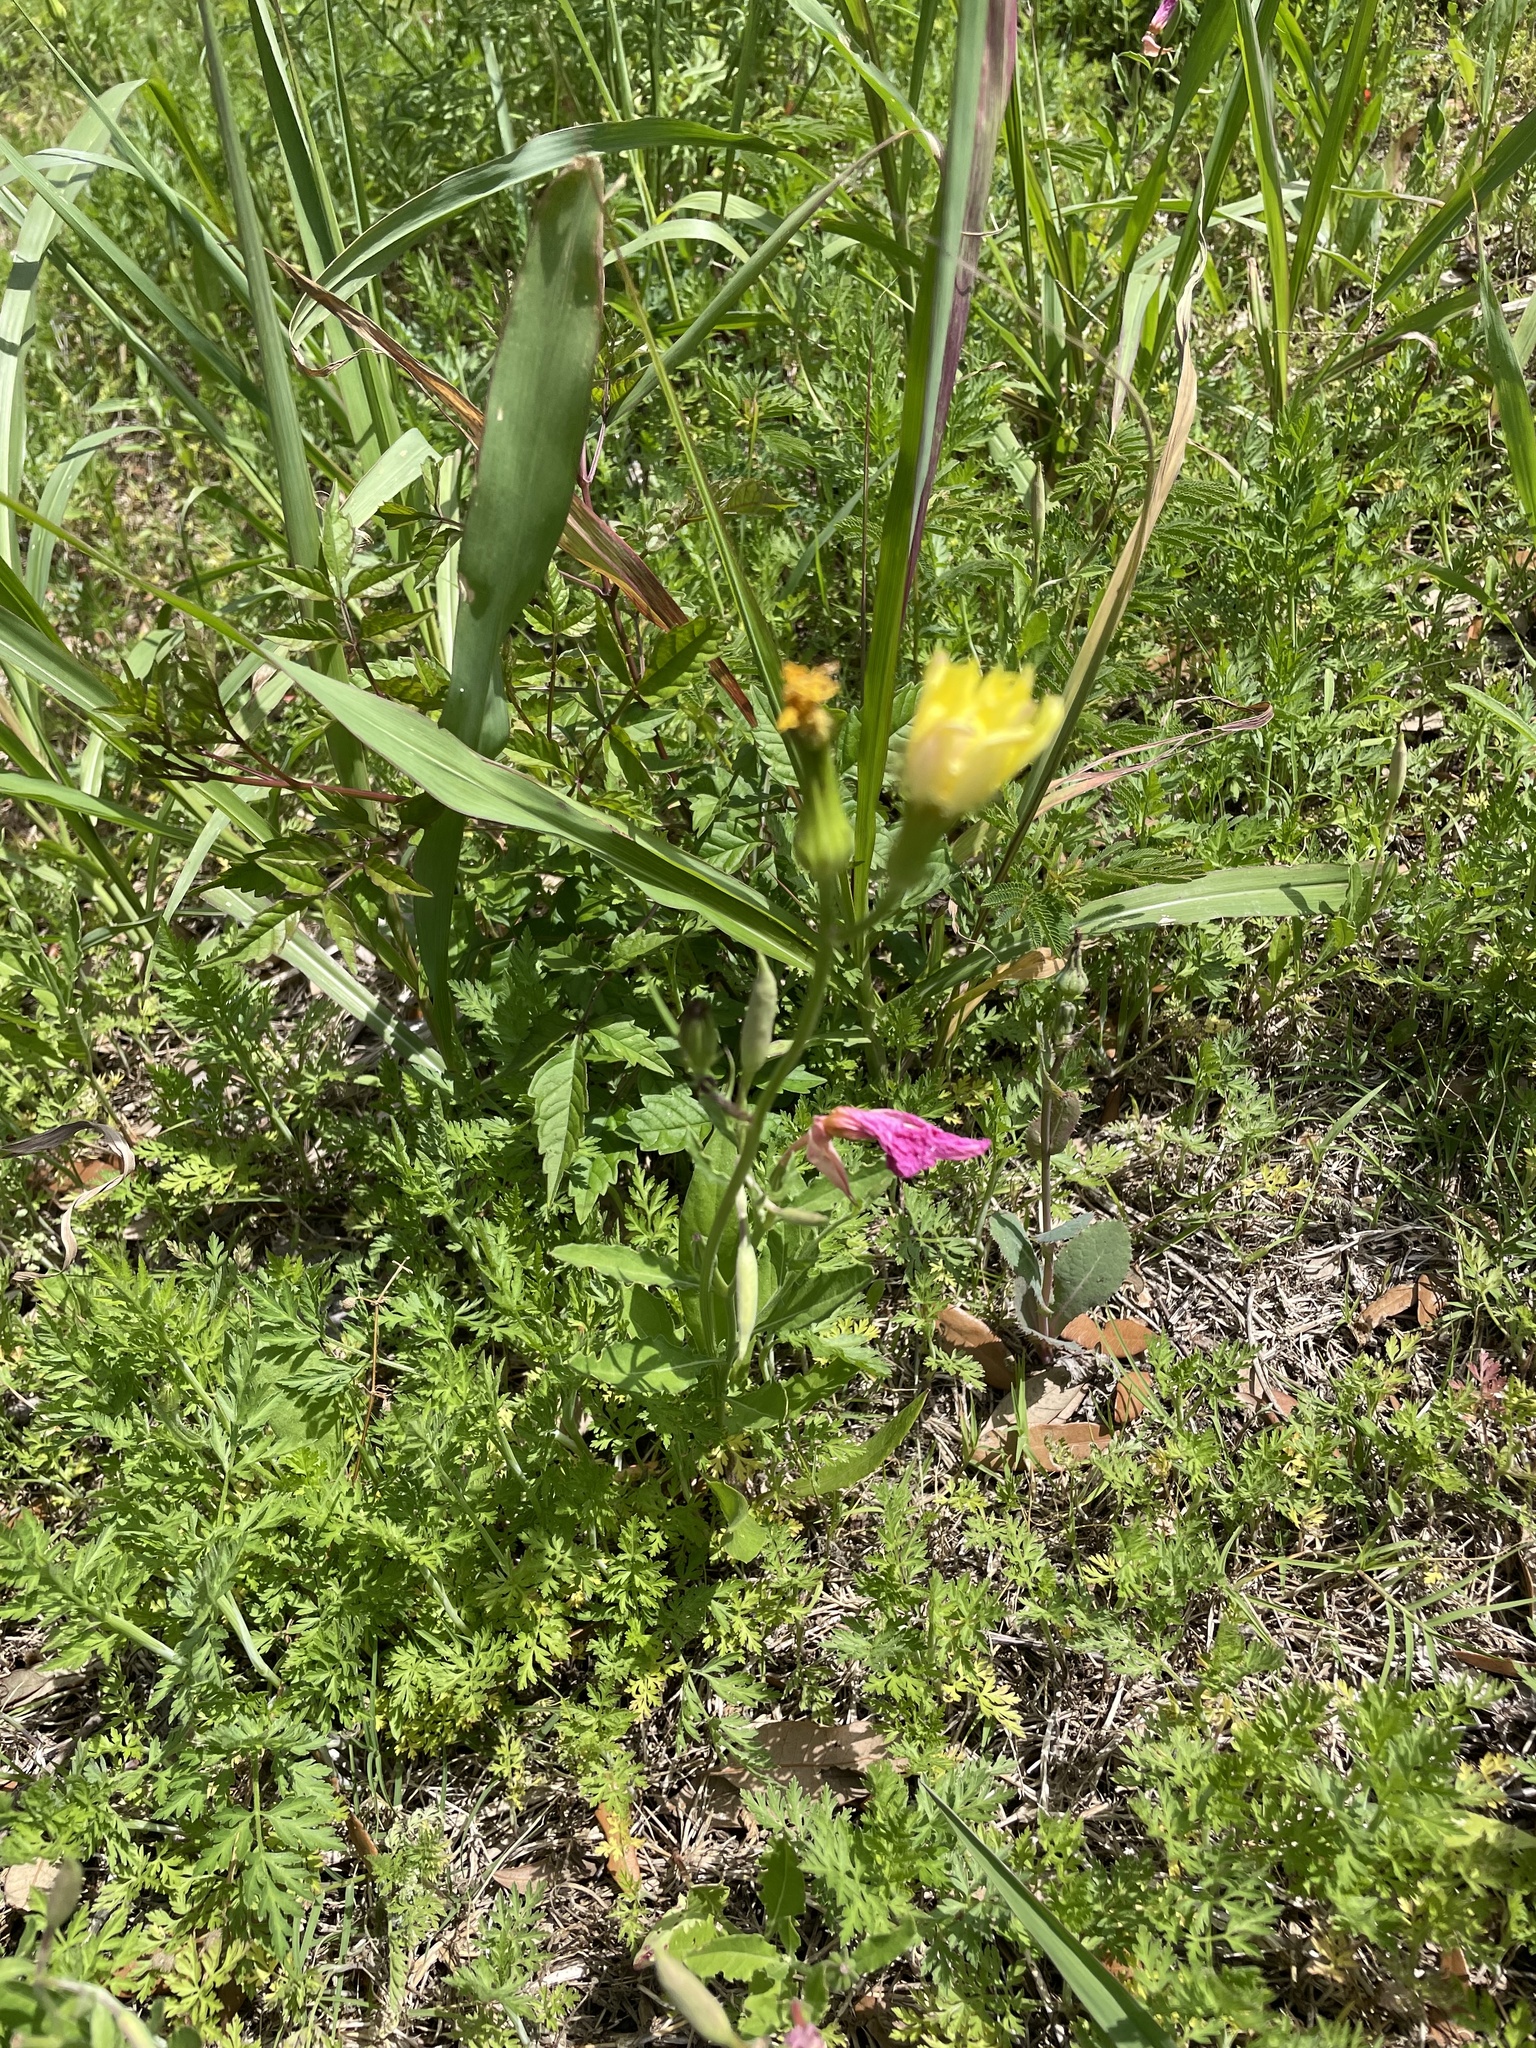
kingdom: Plantae
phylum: Tracheophyta
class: Magnoliopsida
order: Asterales
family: Asteraceae
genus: Pyrrhopappus
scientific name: Pyrrhopappus pauciflorus
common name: Texas false dandelion
